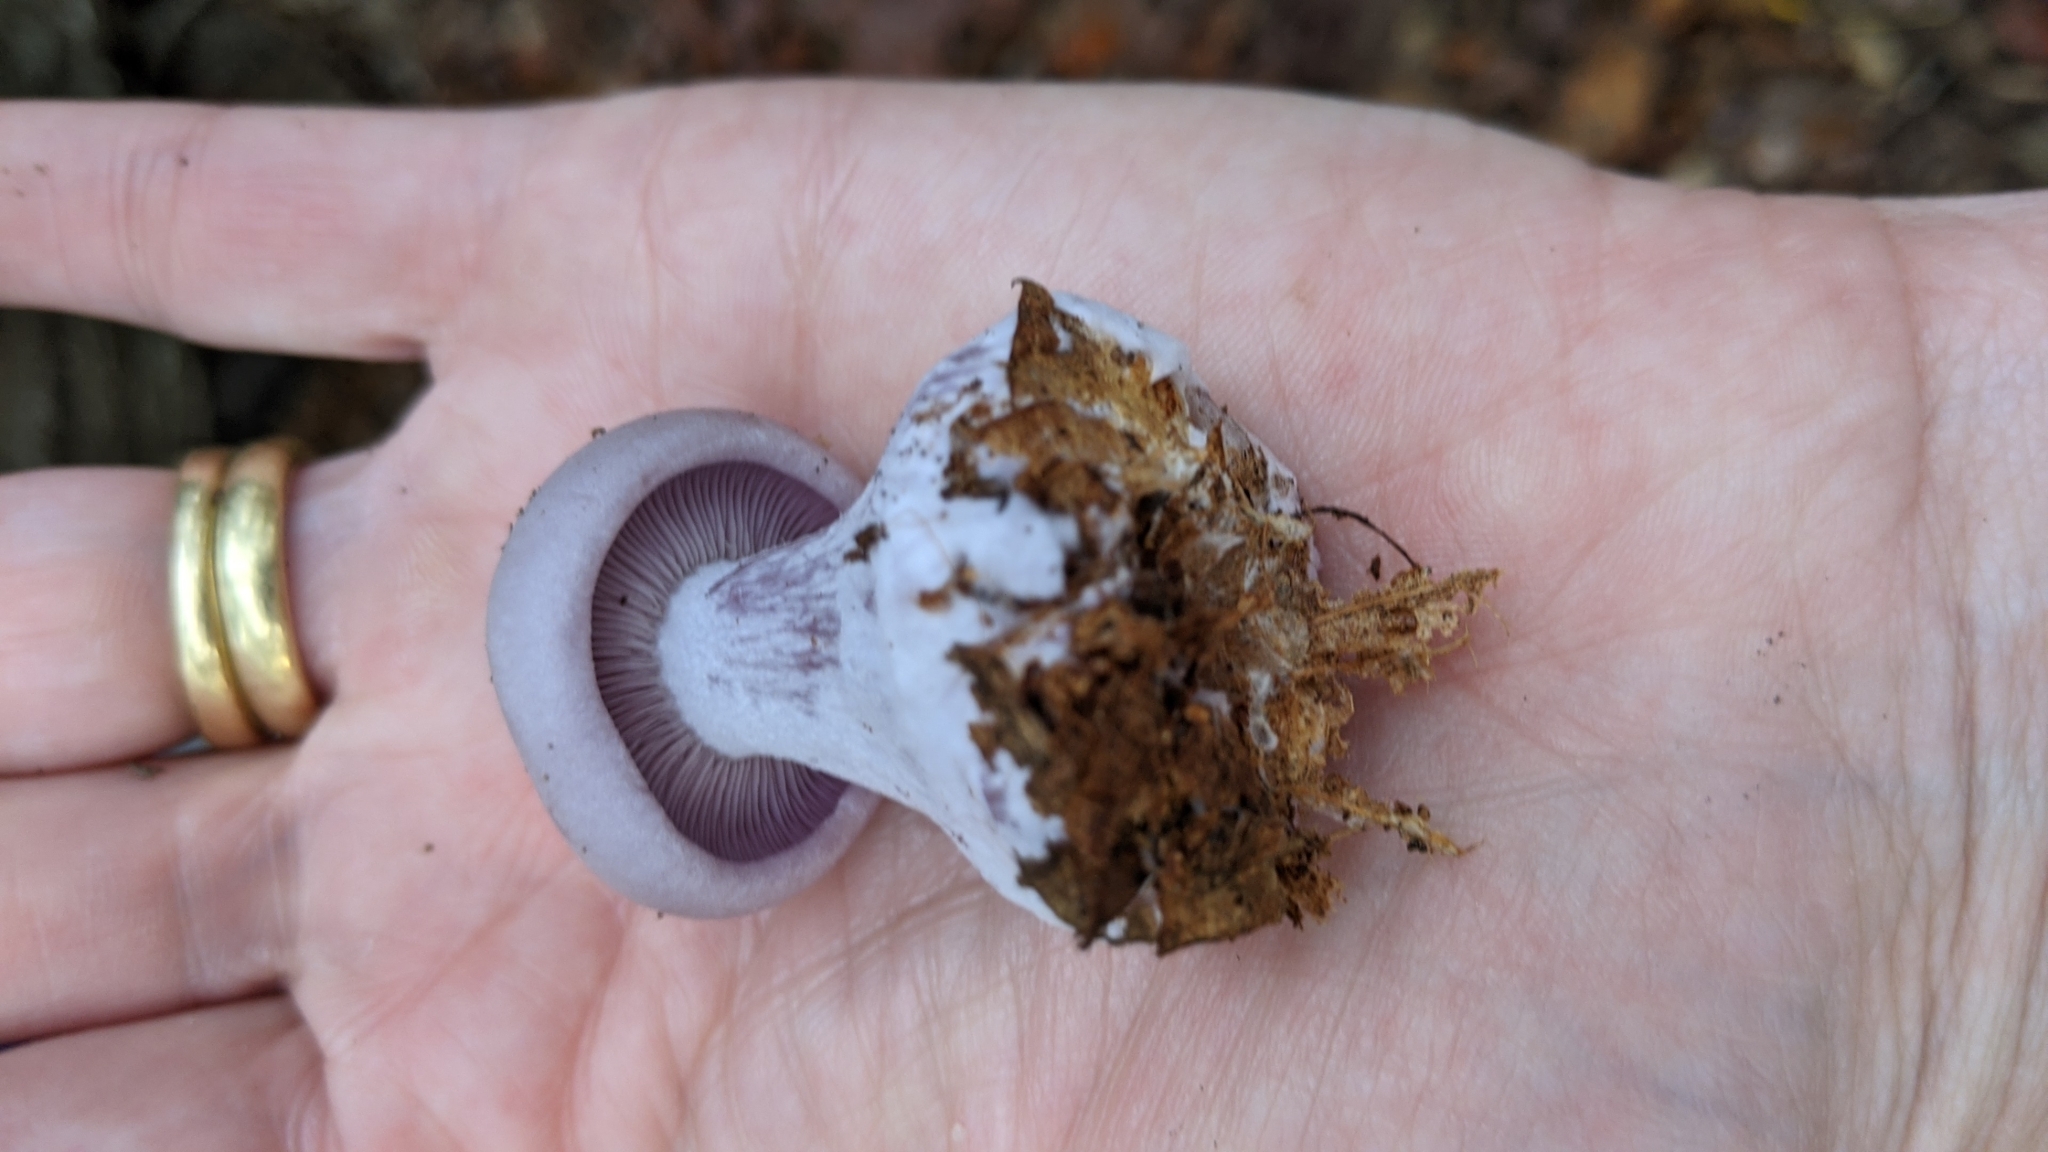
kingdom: Fungi
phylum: Basidiomycota
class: Agaricomycetes
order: Agaricales
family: Tricholomataceae
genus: Collybia
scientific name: Collybia
